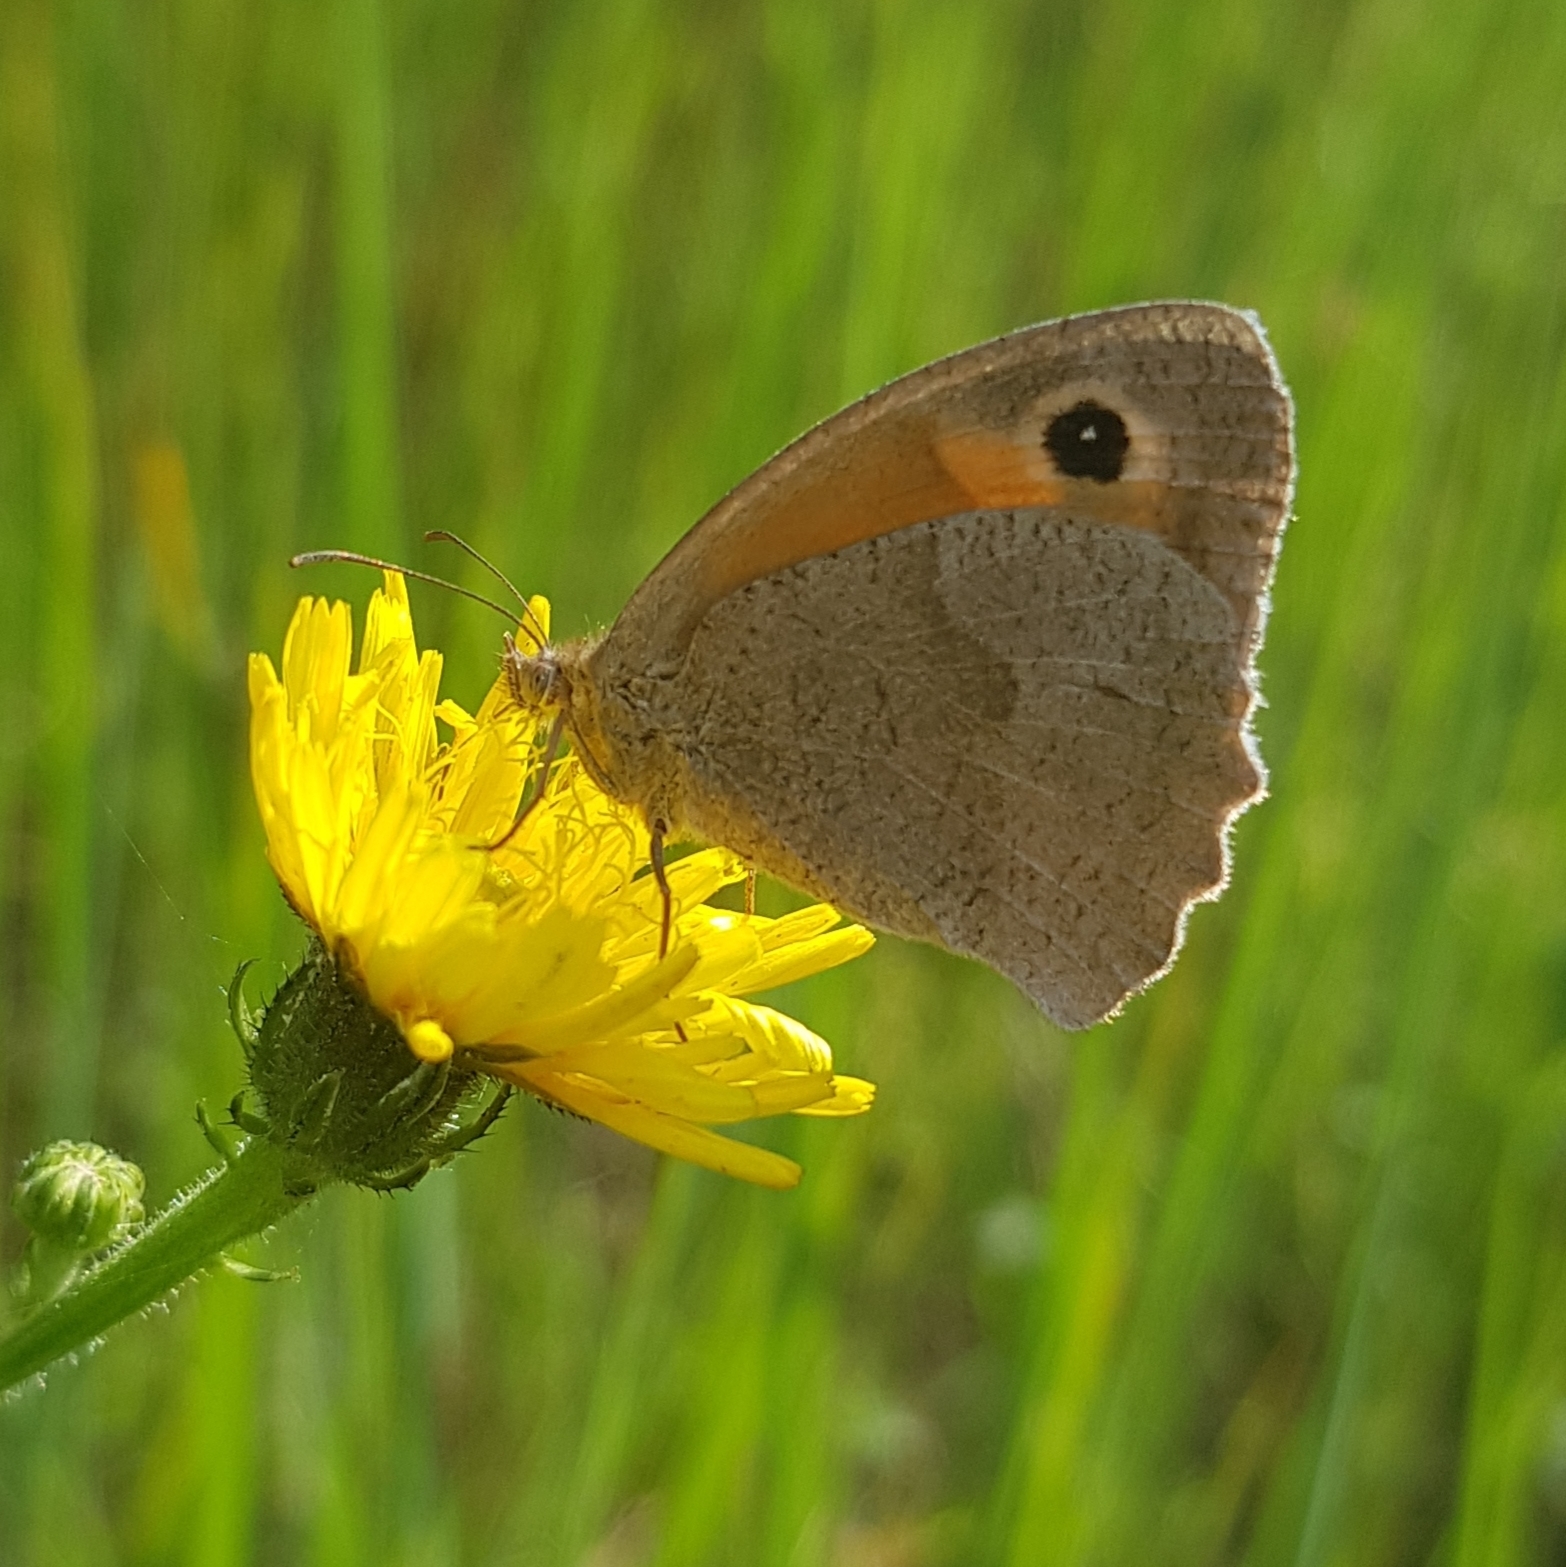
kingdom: Animalia
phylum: Arthropoda
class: Insecta
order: Lepidoptera
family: Nymphalidae
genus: Maniola
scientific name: Maniola jurtina
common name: Meadow brown
